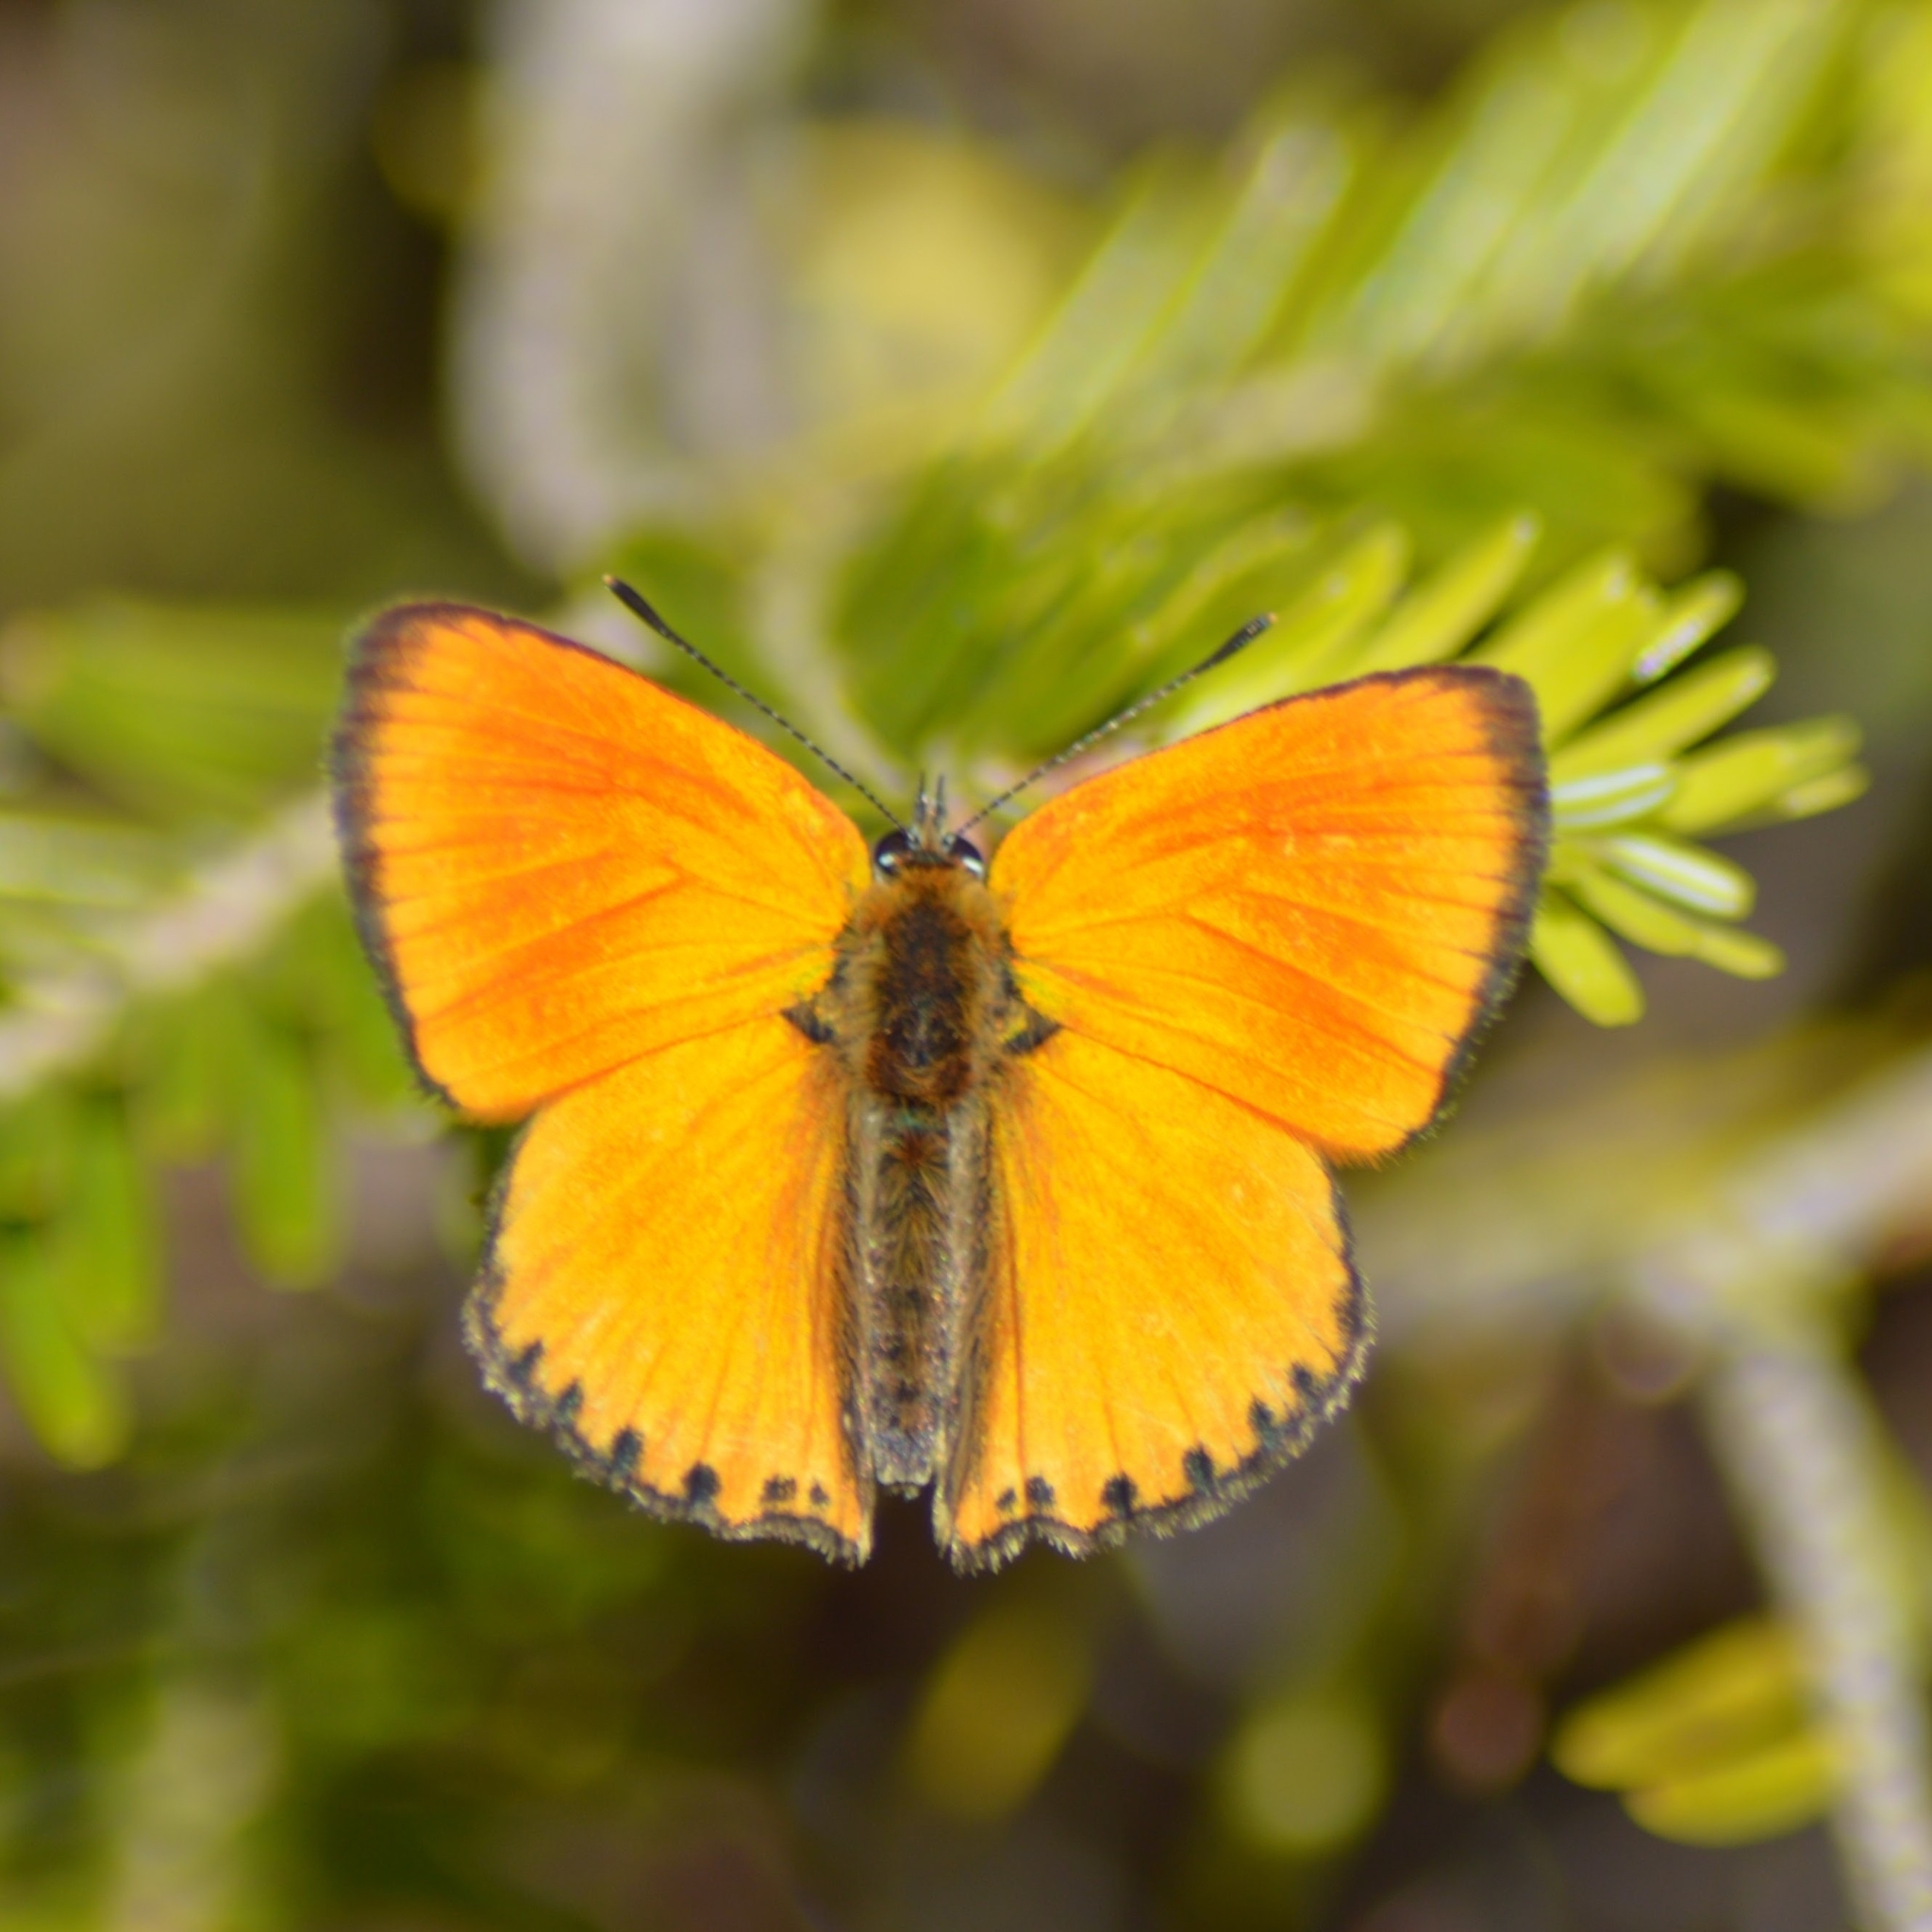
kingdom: Animalia
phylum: Arthropoda
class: Insecta
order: Lepidoptera
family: Lycaenidae
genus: Lycaena
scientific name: Lycaena virgaureae
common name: Scarce copper
